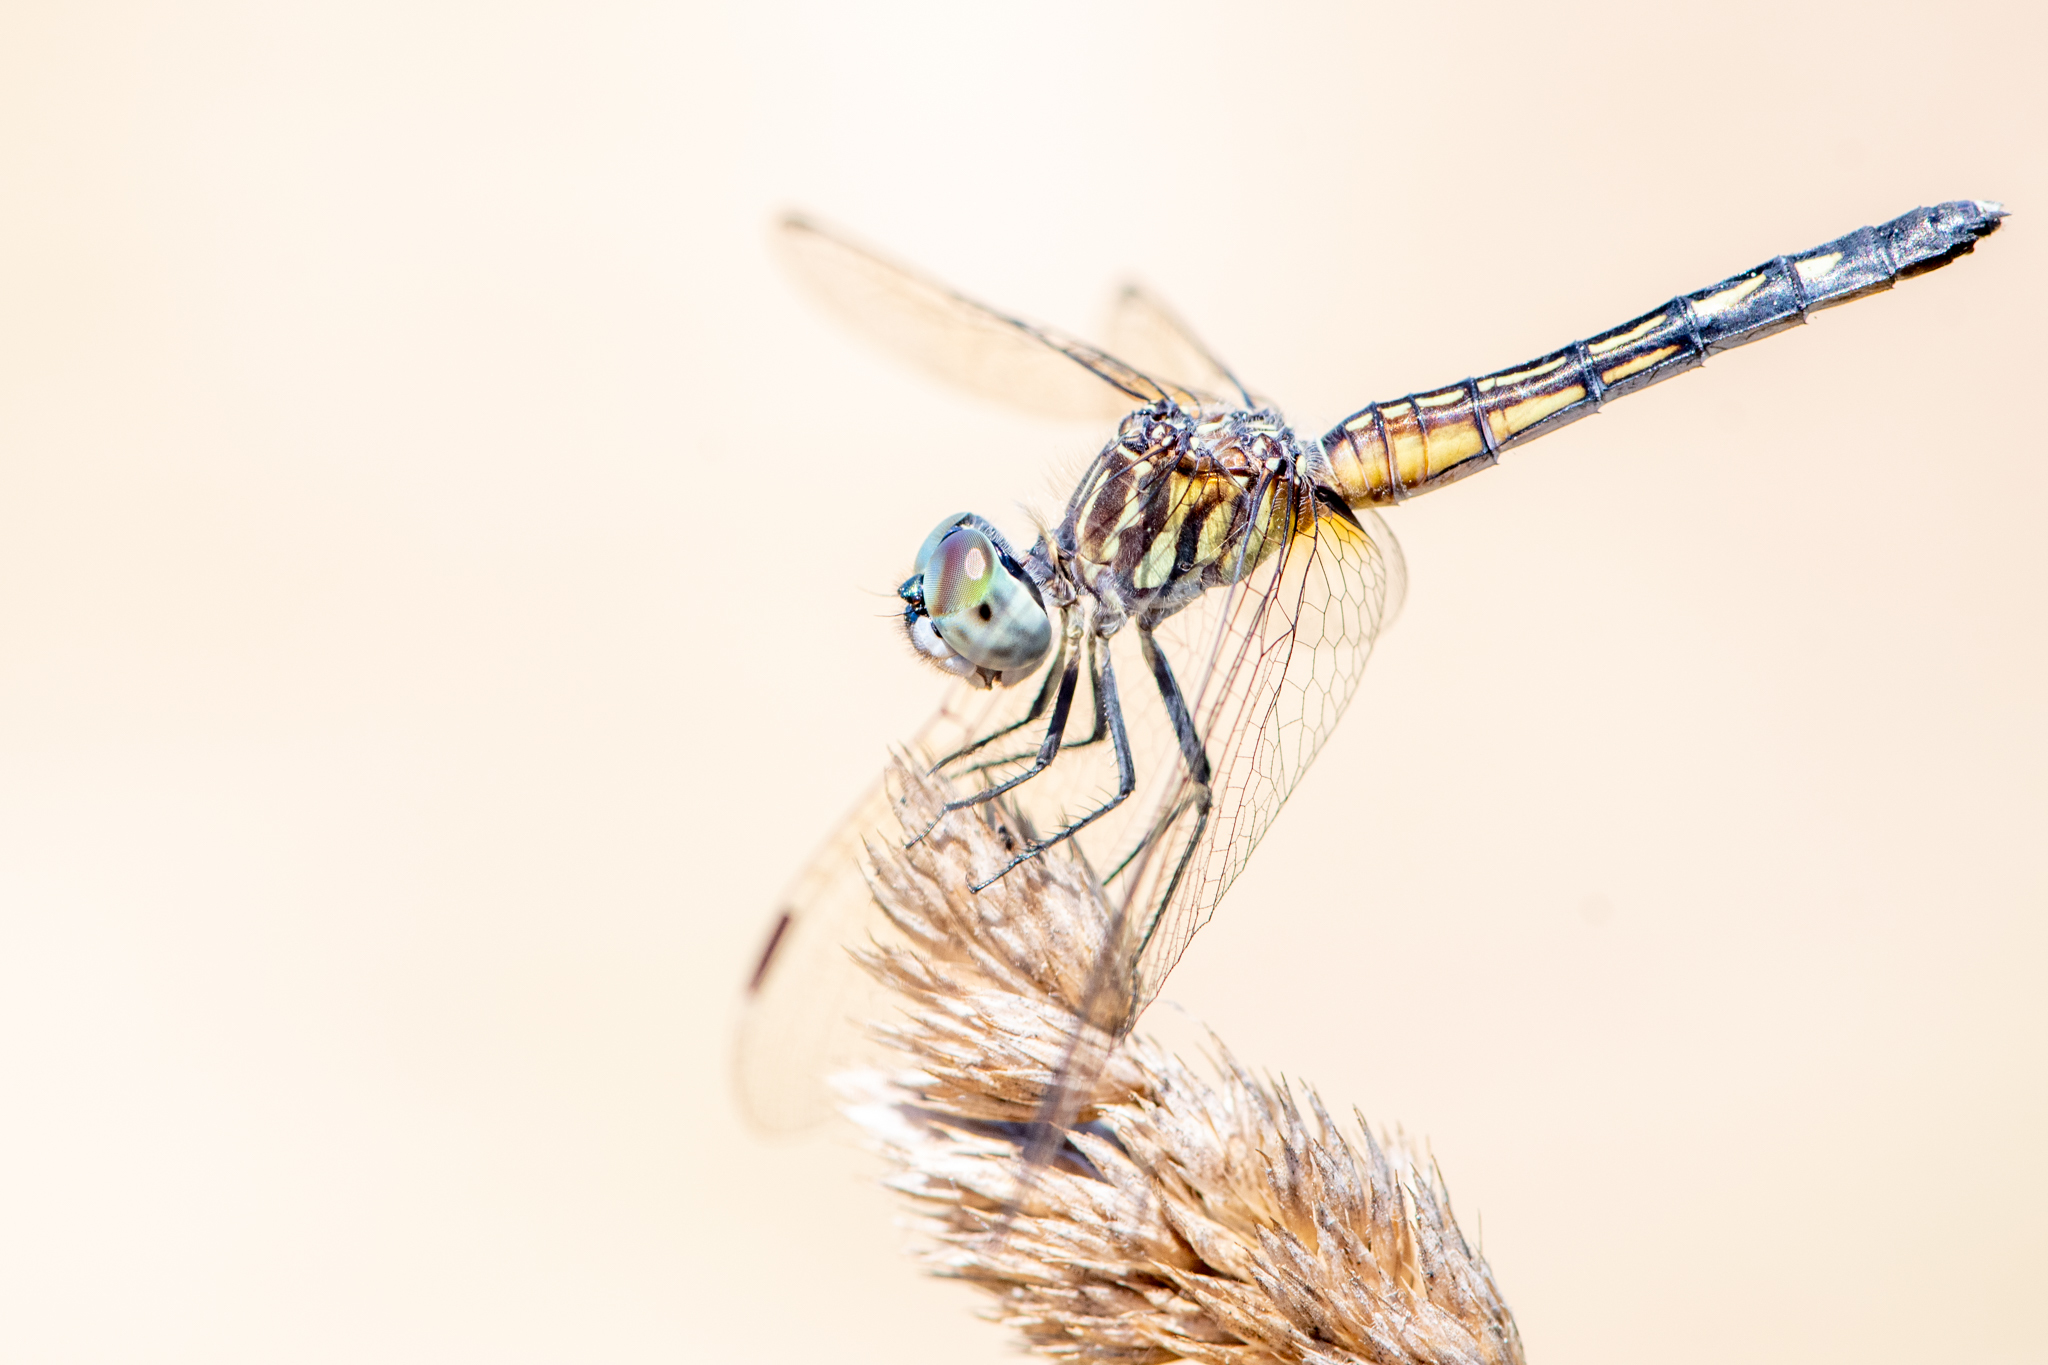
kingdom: Animalia
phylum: Arthropoda
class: Insecta
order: Odonata
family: Libellulidae
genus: Pachydiplax
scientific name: Pachydiplax longipennis
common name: Blue dasher
